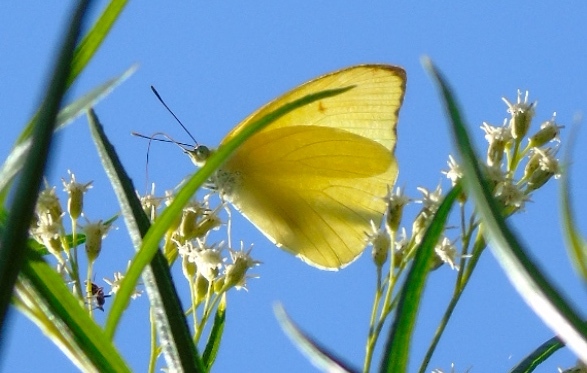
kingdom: Animalia
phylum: Arthropoda
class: Insecta
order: Lepidoptera
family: Pieridae
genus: Aphrissa
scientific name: Aphrissa statira
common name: Statira sulphur
